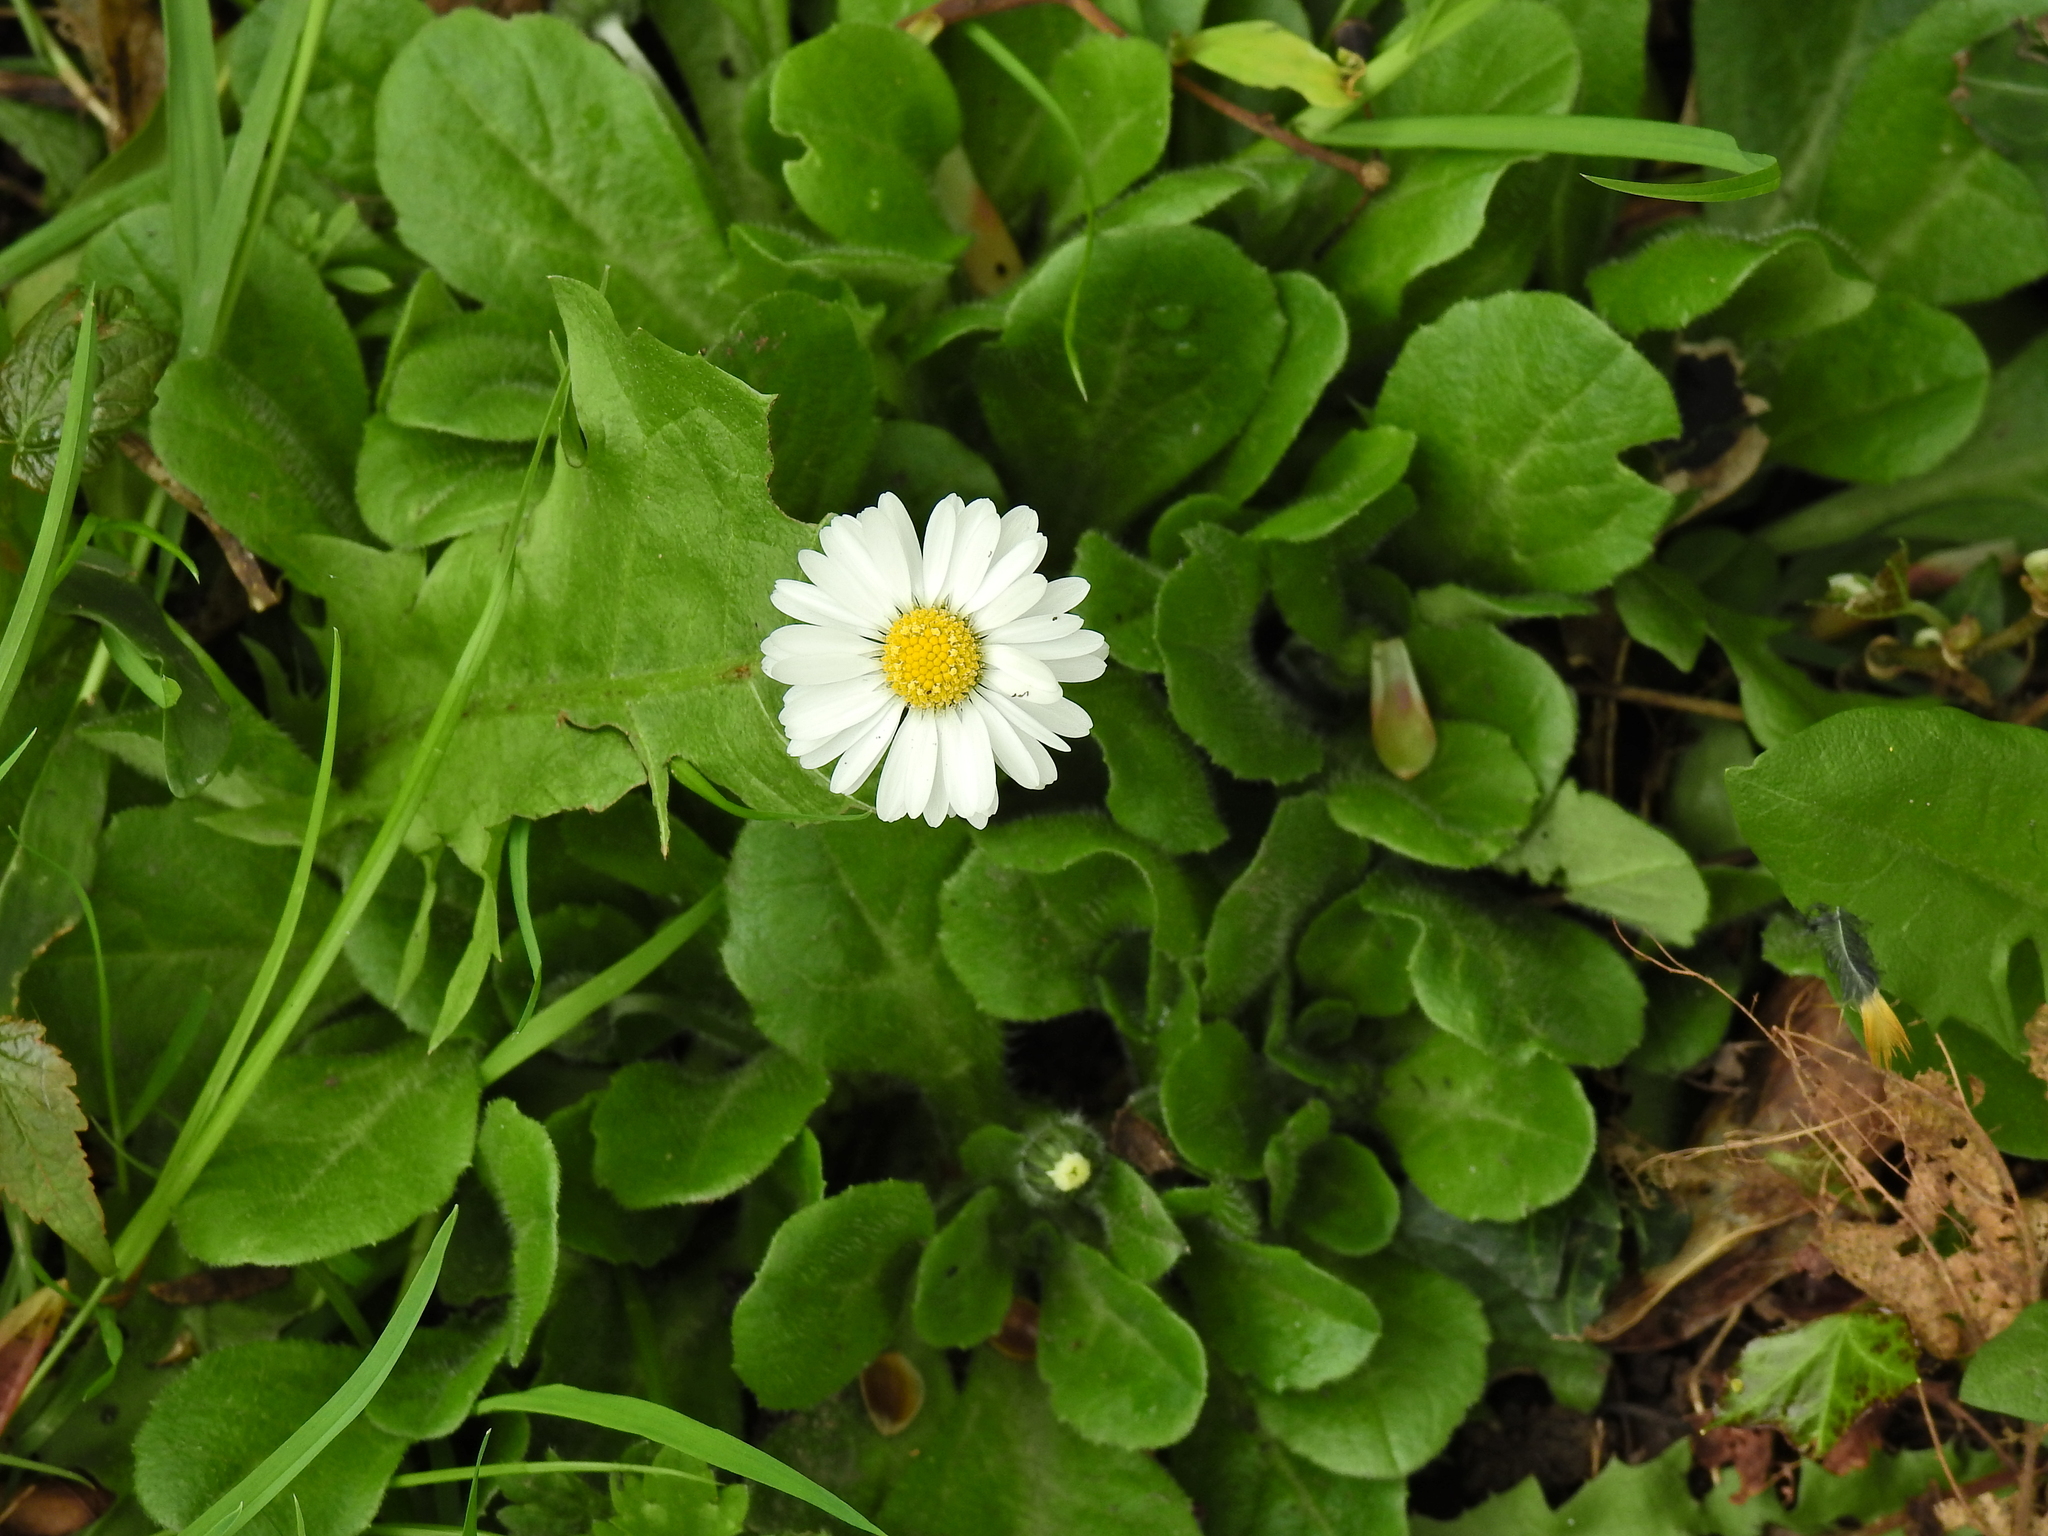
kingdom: Plantae
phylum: Tracheophyta
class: Magnoliopsida
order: Asterales
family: Asteraceae
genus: Bellis
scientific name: Bellis perennis
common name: Lawndaisy
